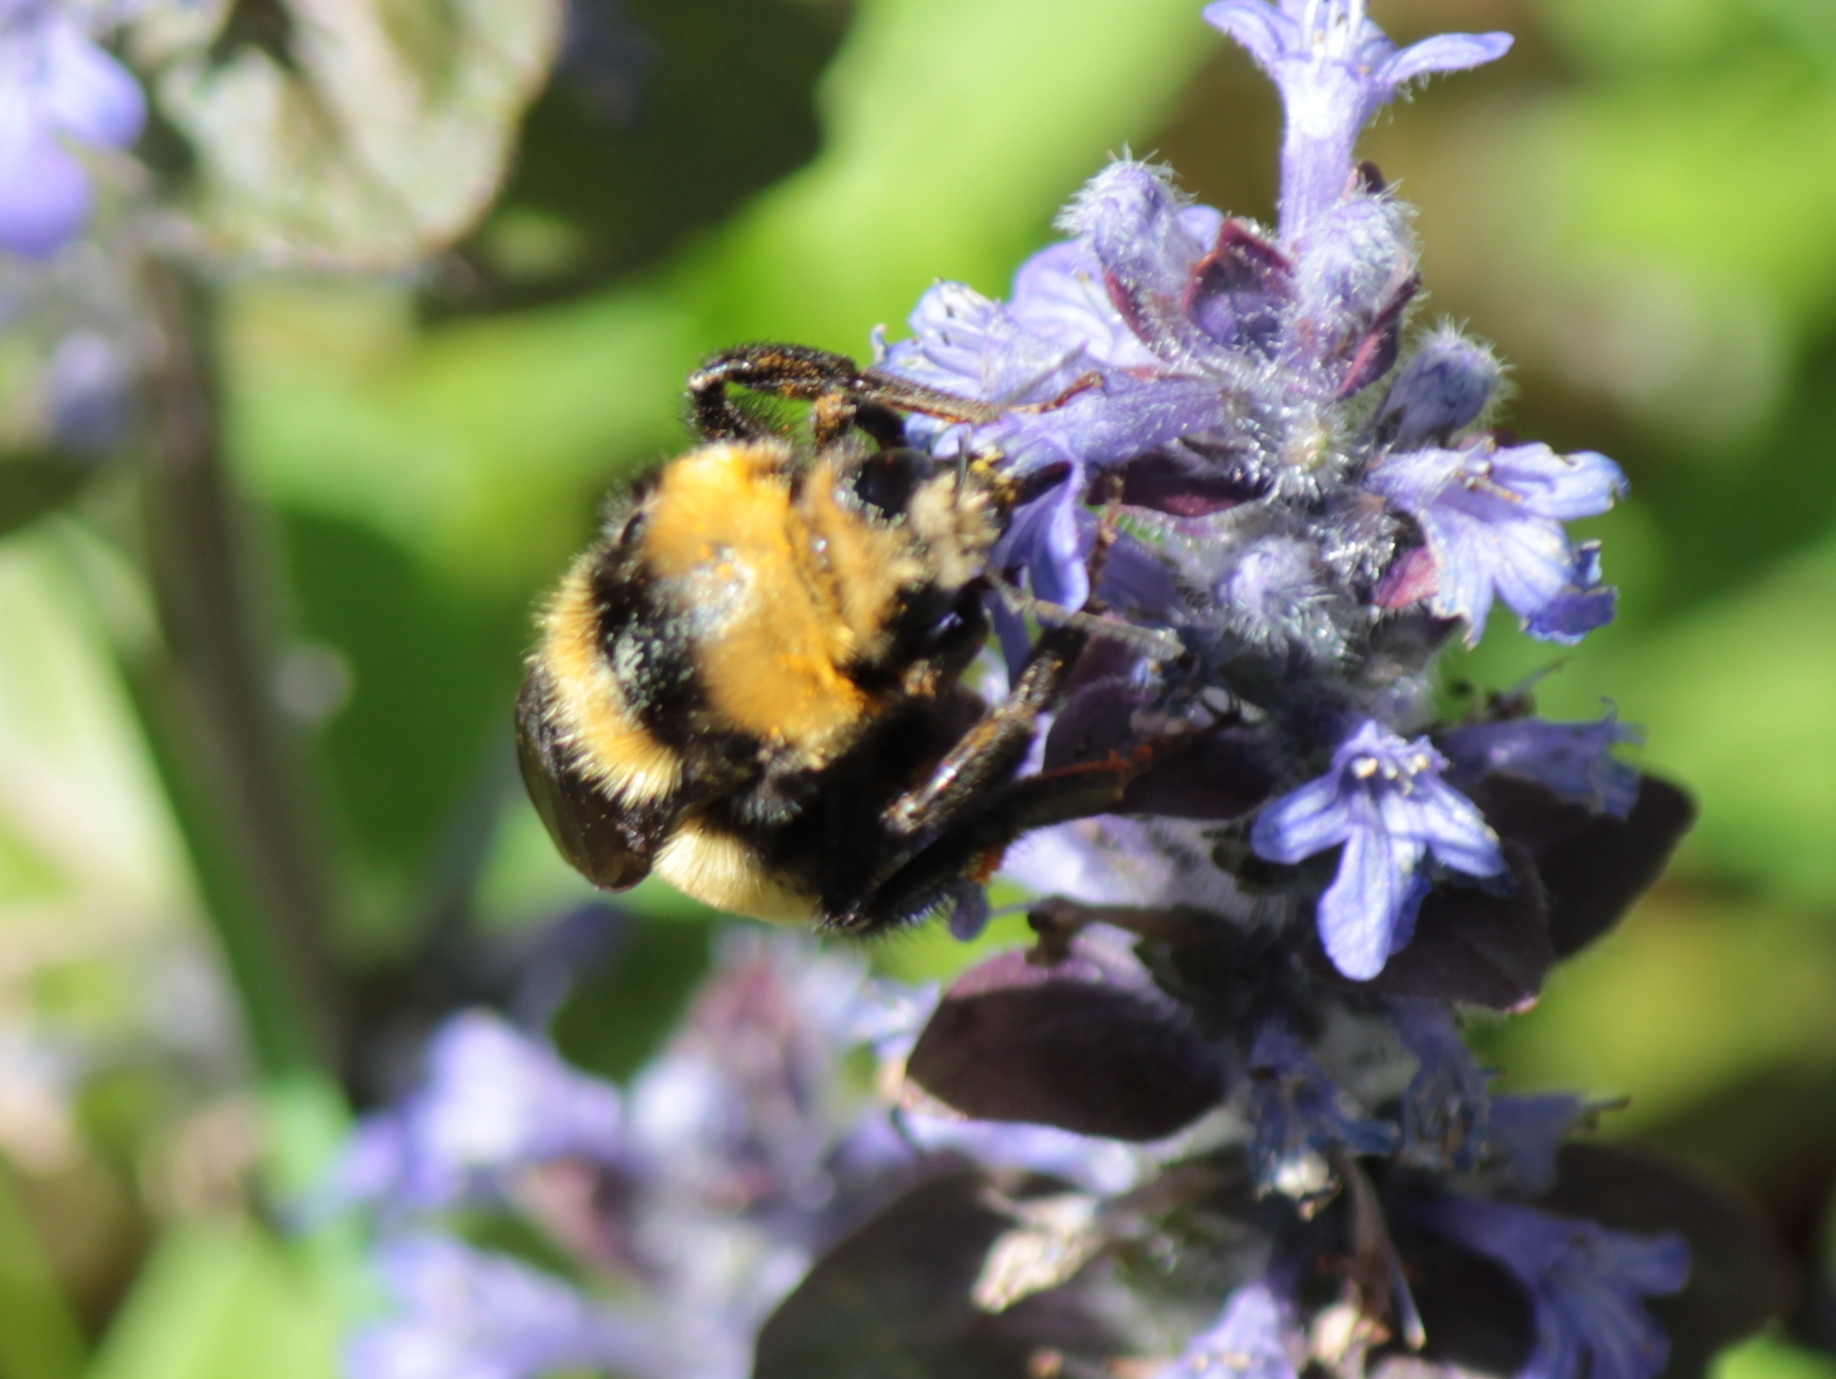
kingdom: Animalia
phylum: Arthropoda
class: Insecta
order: Hymenoptera
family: Apidae
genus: Bombus
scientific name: Bombus borealis
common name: Northern amber bumble bee
